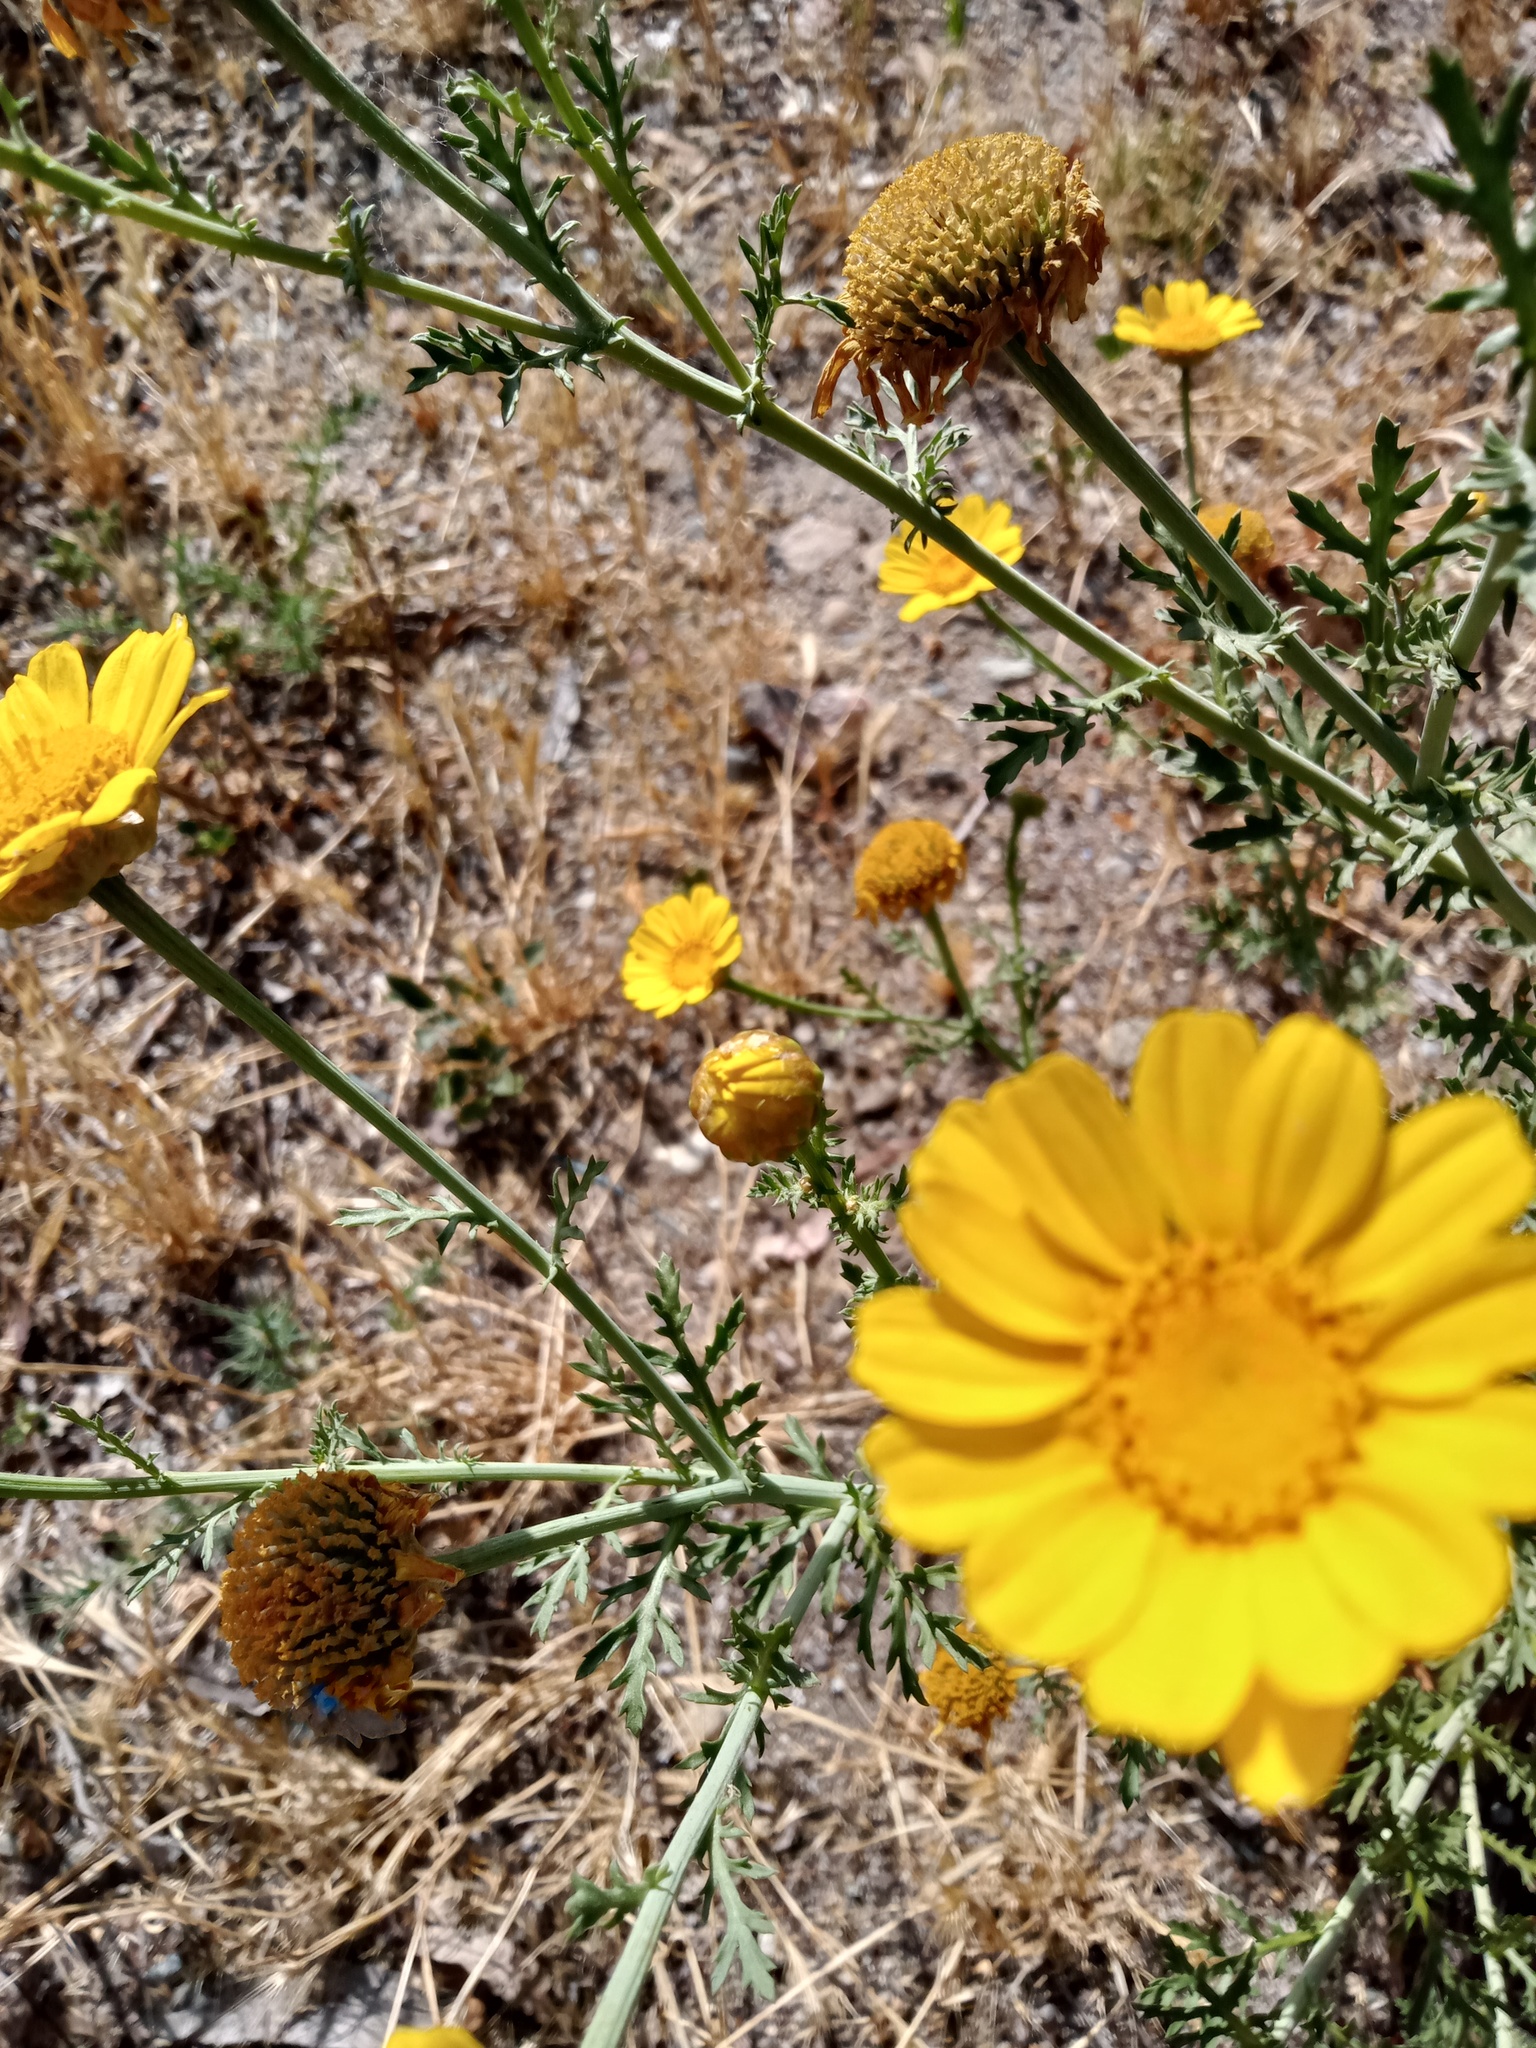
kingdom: Plantae
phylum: Tracheophyta
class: Magnoliopsida
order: Asterales
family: Asteraceae
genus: Glebionis
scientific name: Glebionis coronaria
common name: Crowndaisy
